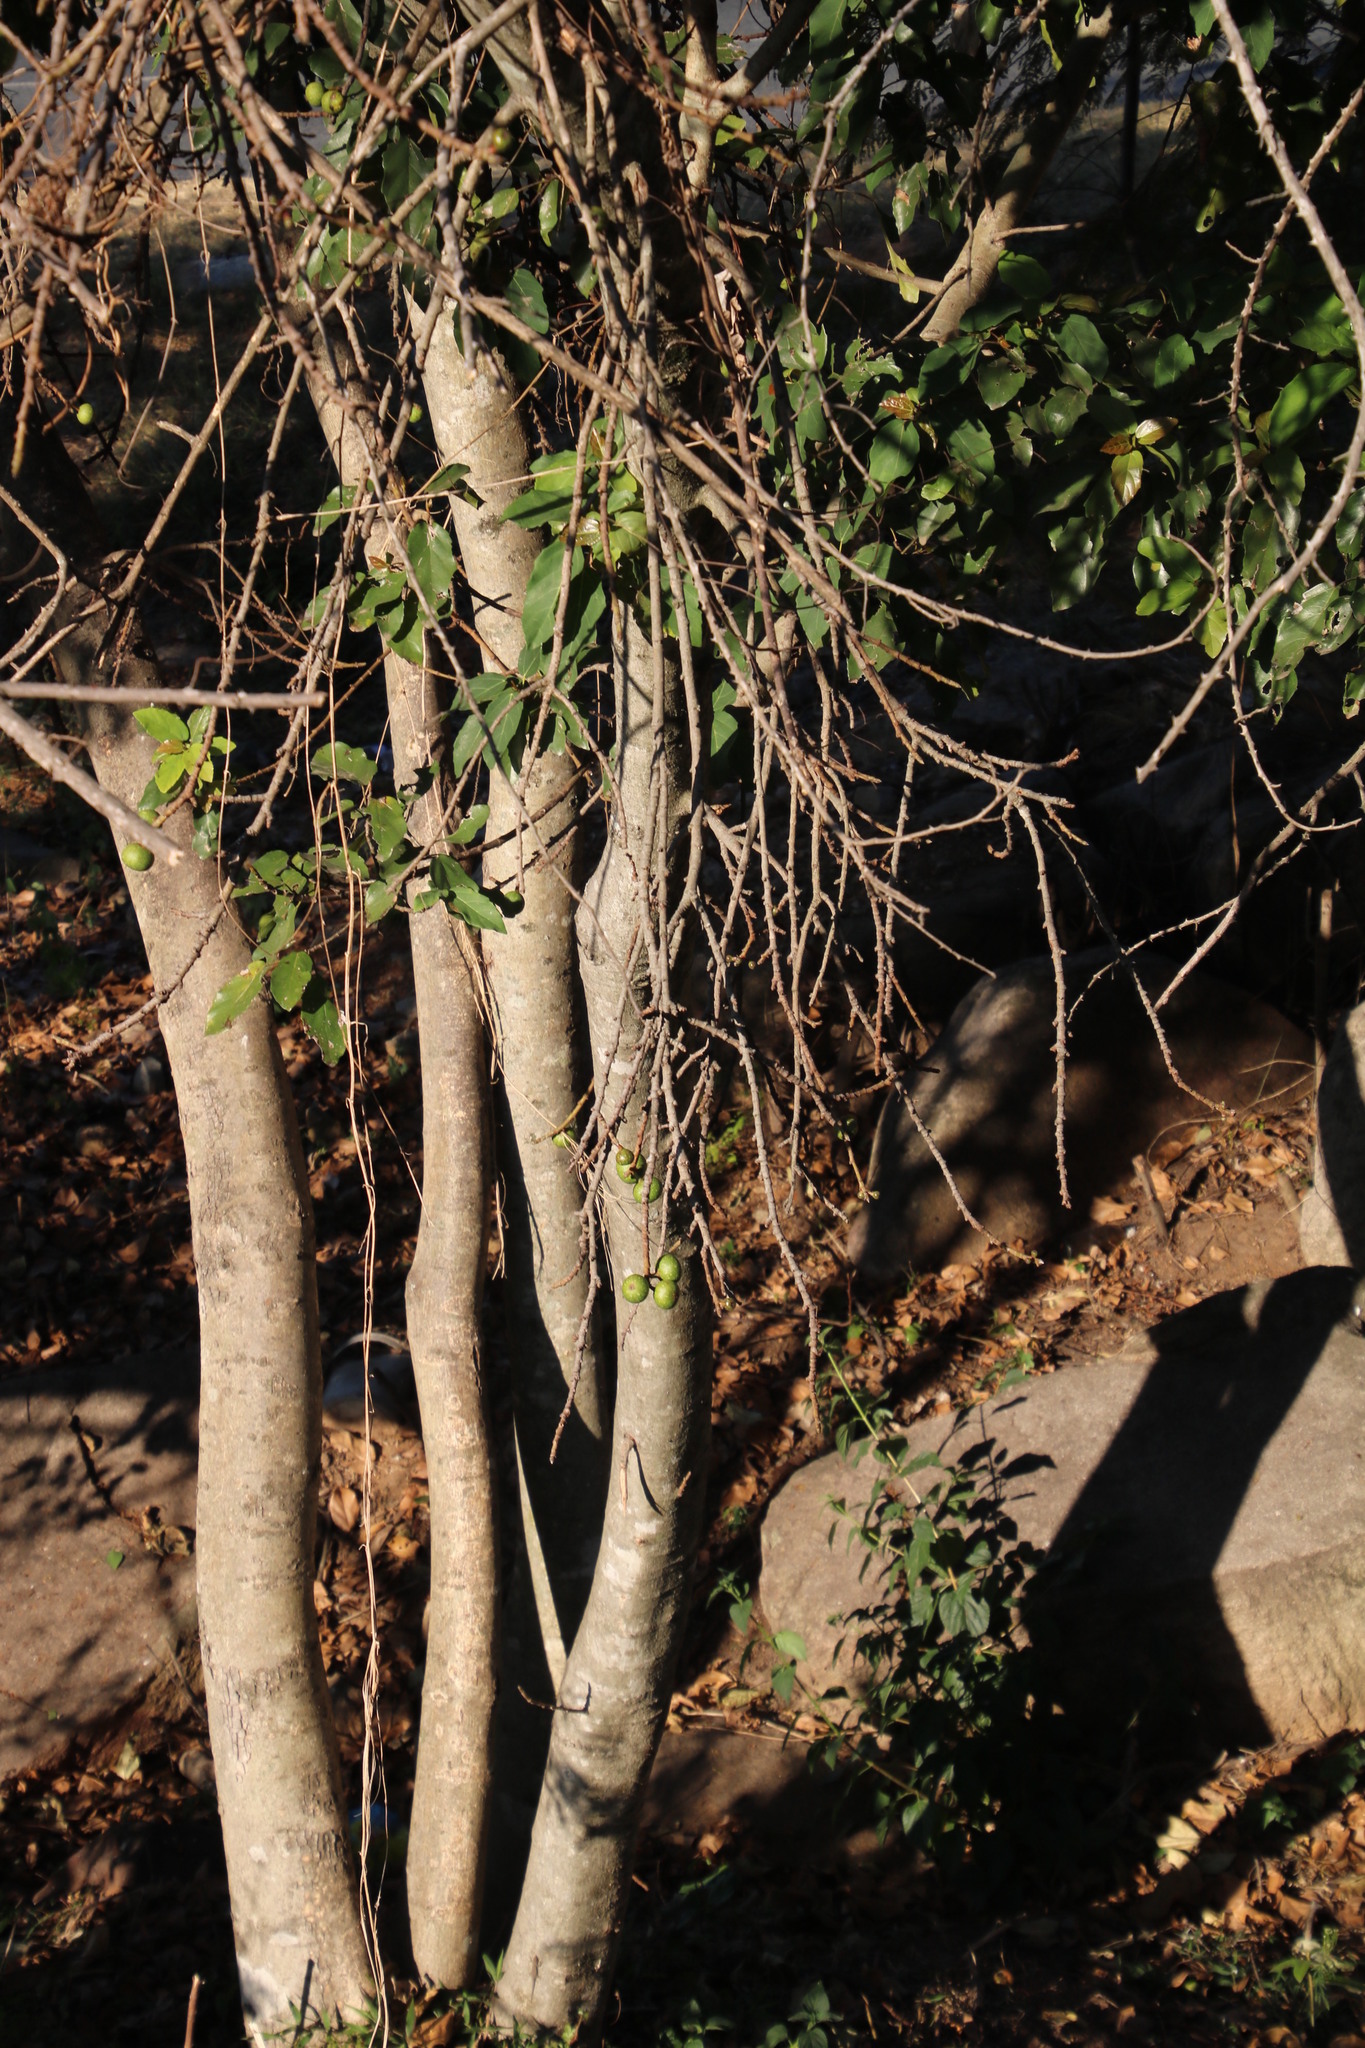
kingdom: Plantae
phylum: Tracheophyta
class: Magnoliopsida
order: Rosales
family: Moraceae
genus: Ficus
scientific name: Ficus sur
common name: Cape fig
